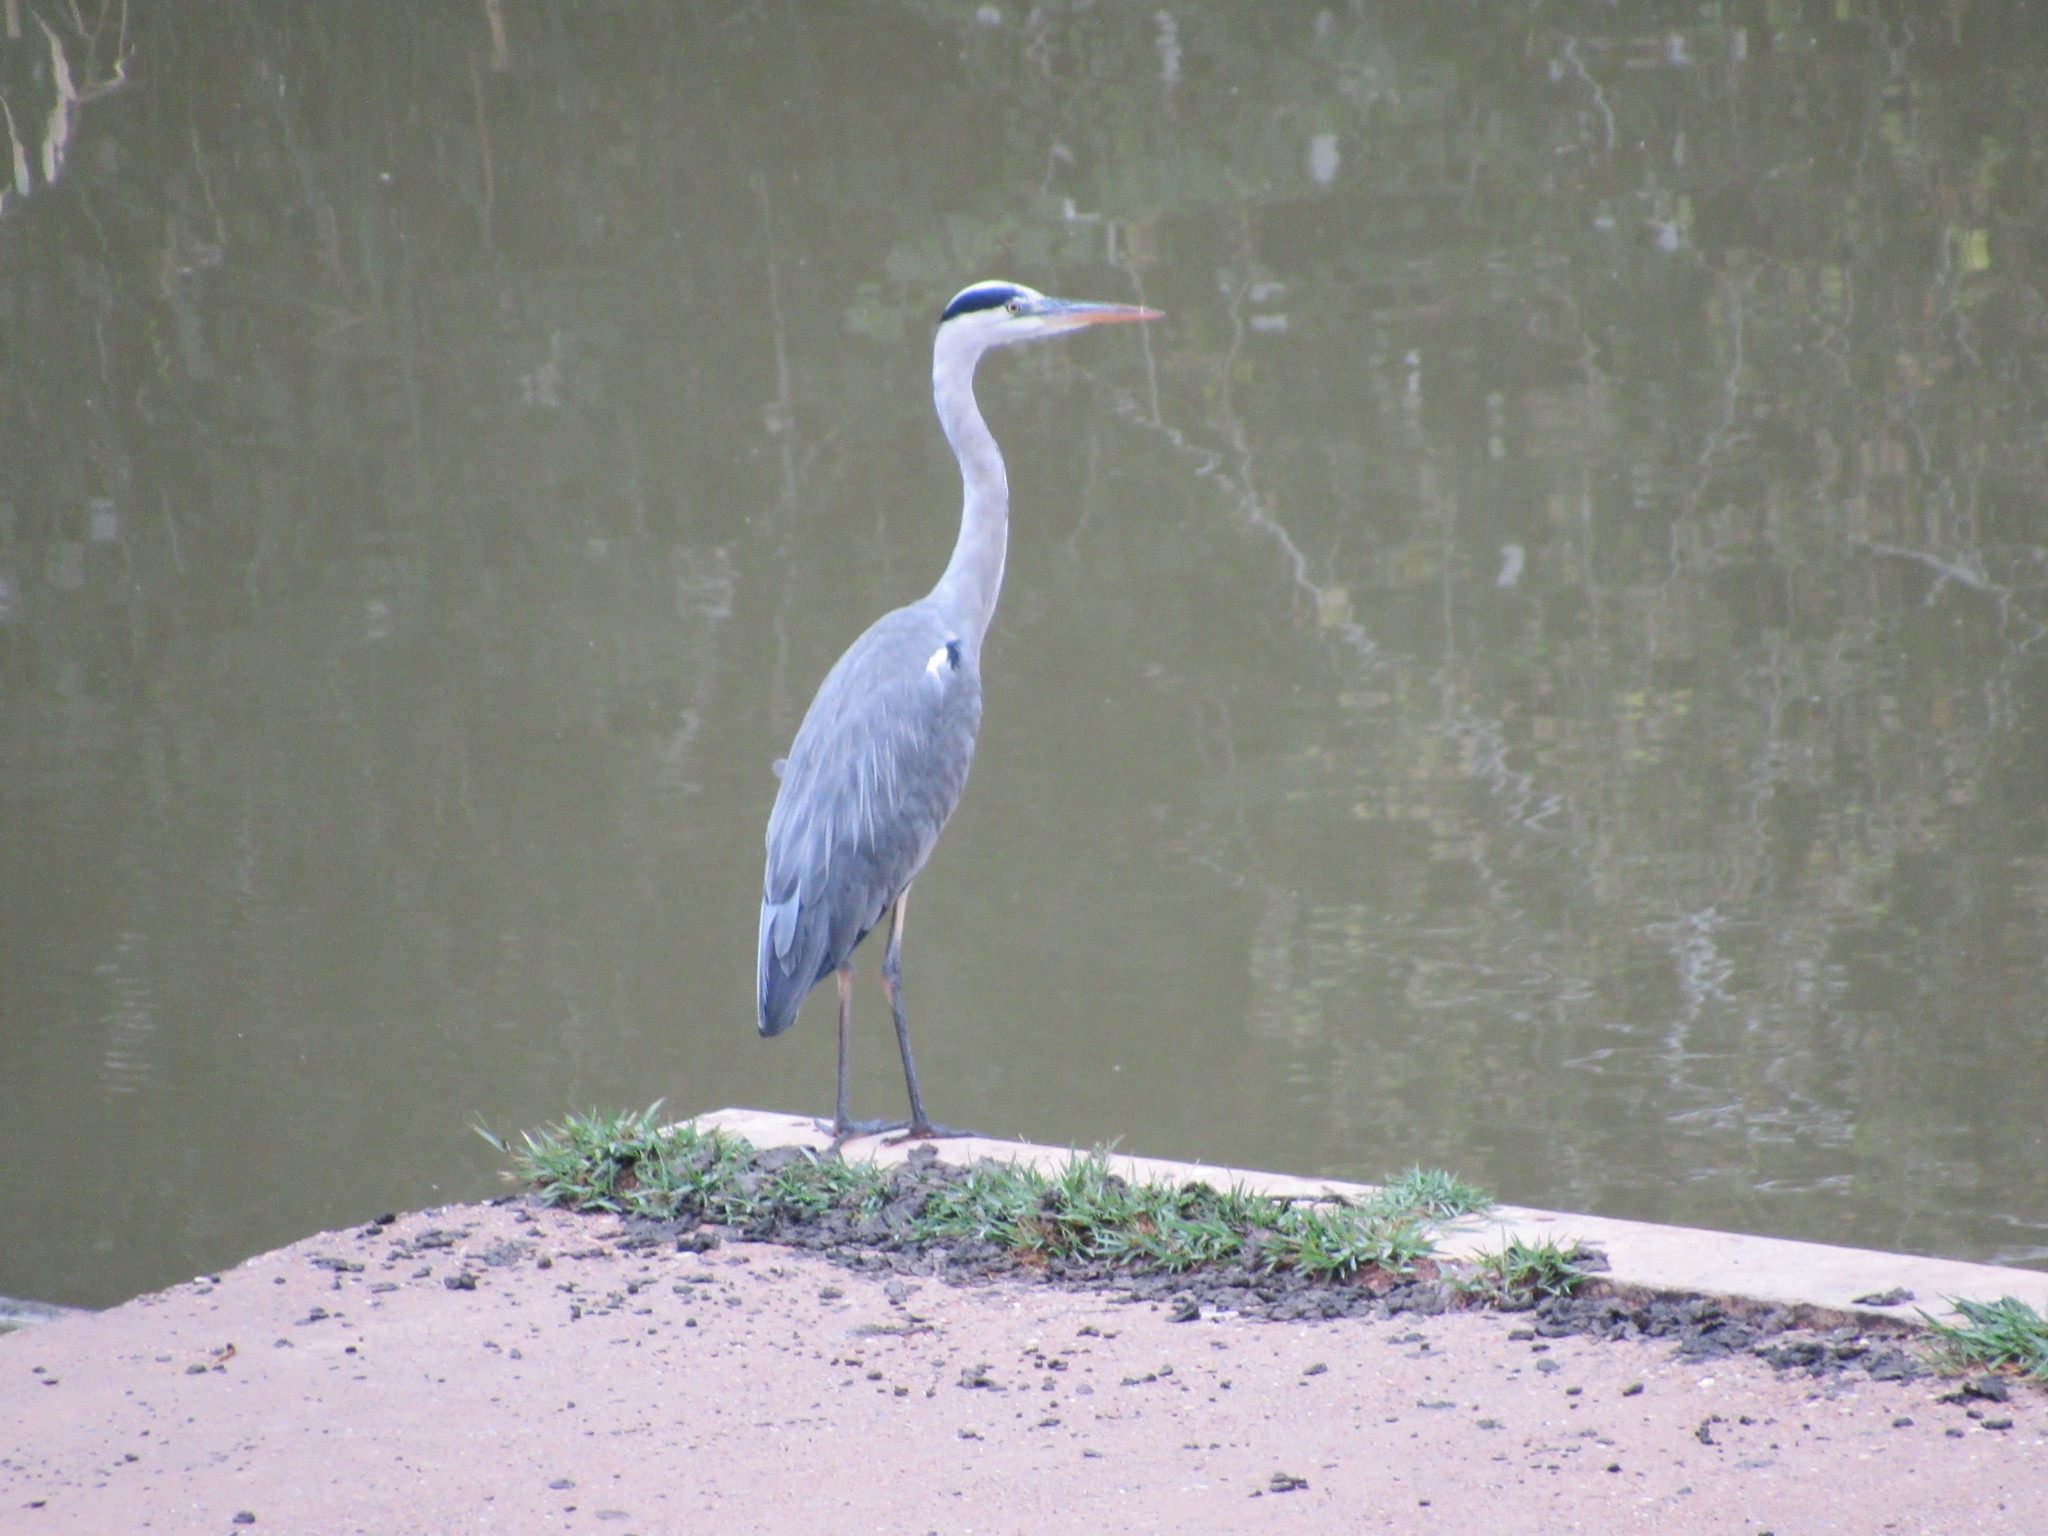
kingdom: Animalia
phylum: Chordata
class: Aves
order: Pelecaniformes
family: Ardeidae
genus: Ardea
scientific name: Ardea cinerea
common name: Grey heron
